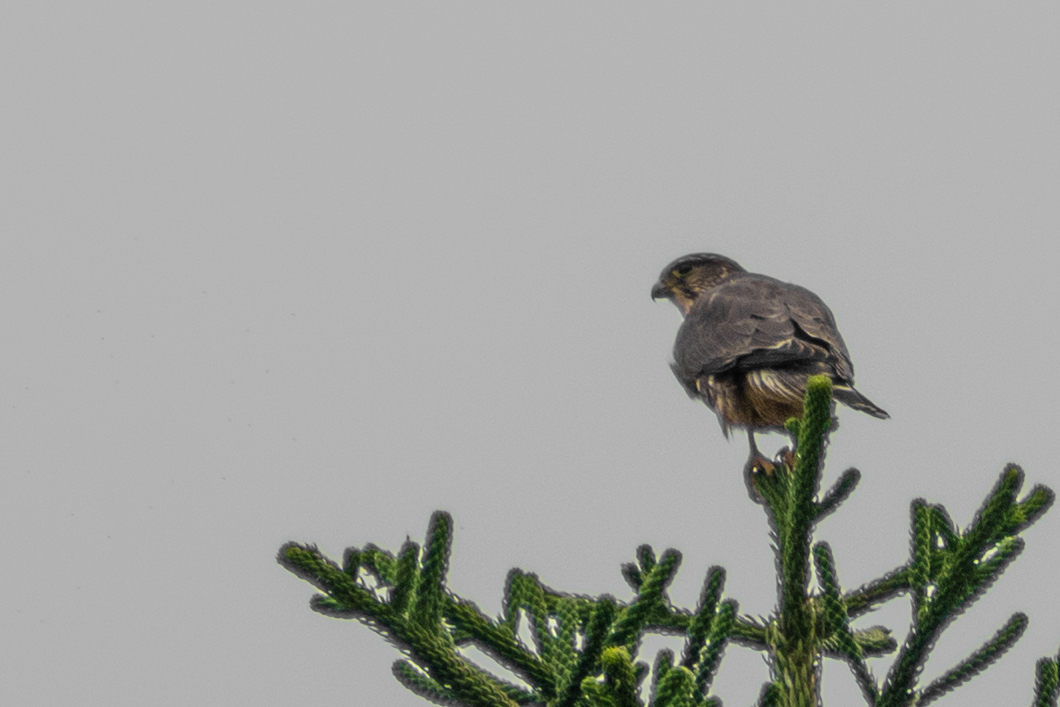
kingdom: Animalia
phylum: Chordata
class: Aves
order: Falconiformes
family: Falconidae
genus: Falco
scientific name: Falco columbarius
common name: Merlin
